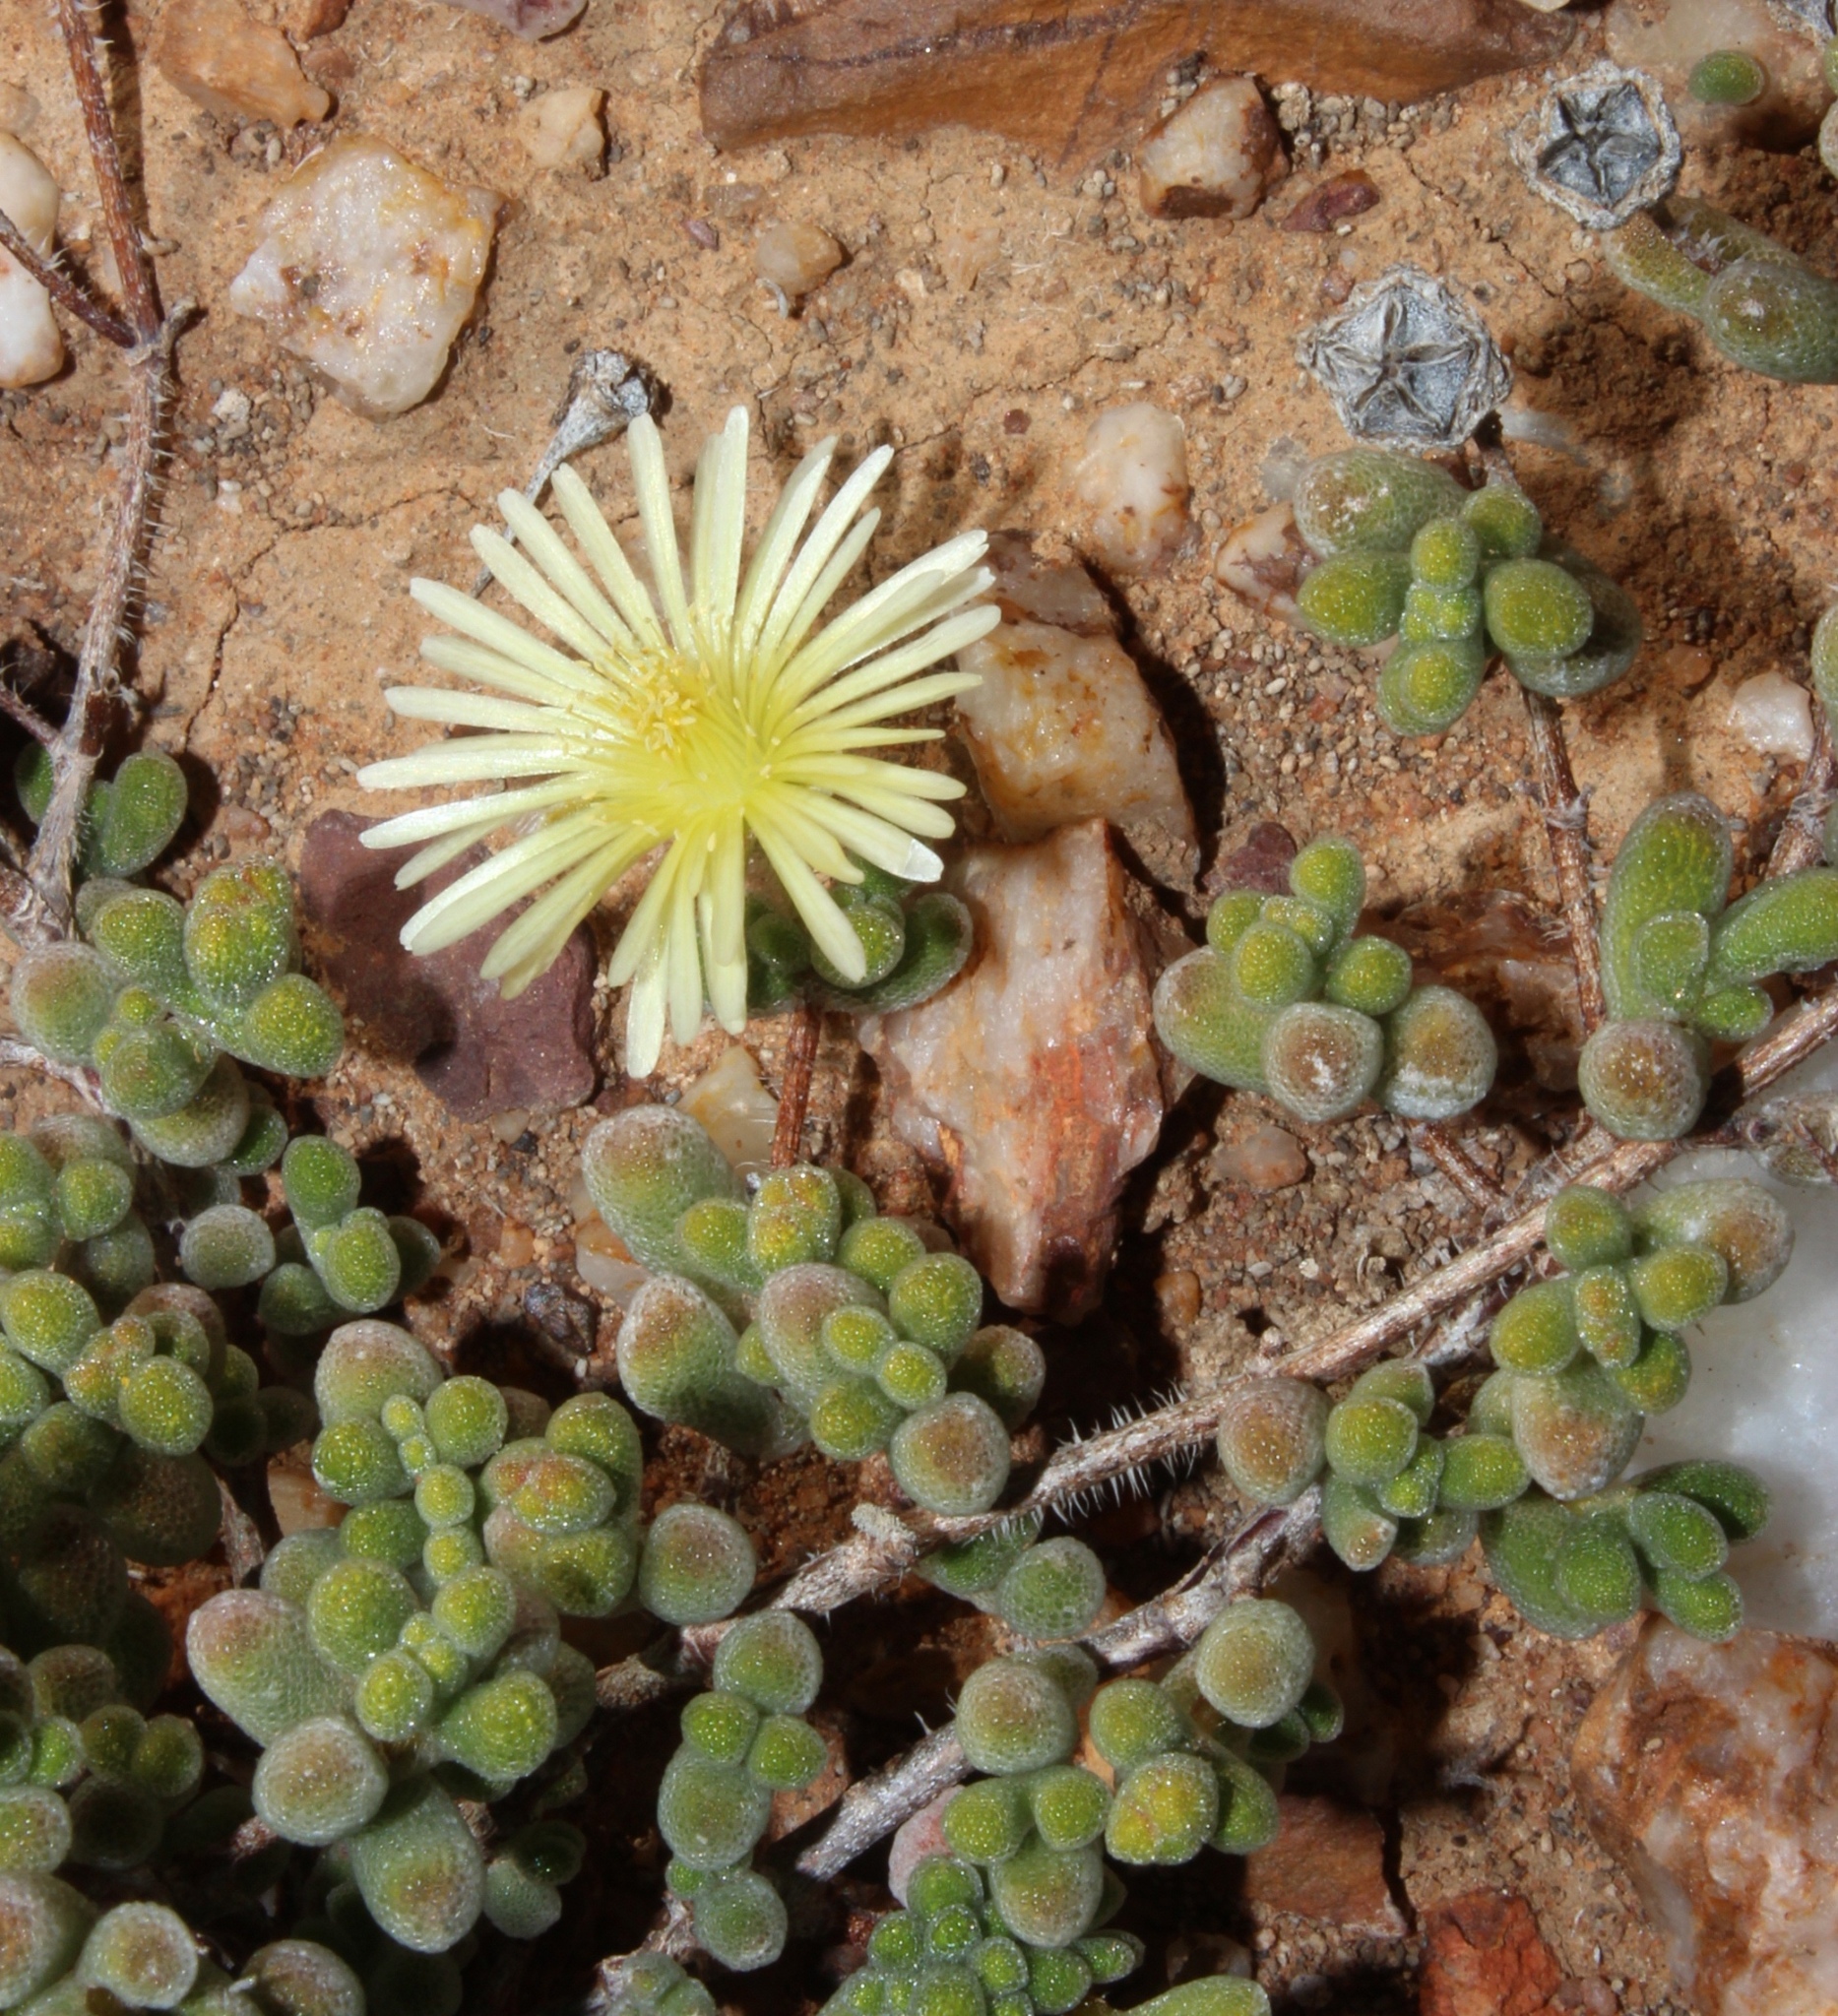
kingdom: Plantae
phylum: Tracheophyta
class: Magnoliopsida
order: Caryophyllales
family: Aizoaceae
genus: Drosanthemum
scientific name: Drosanthemum schoenlandianum
